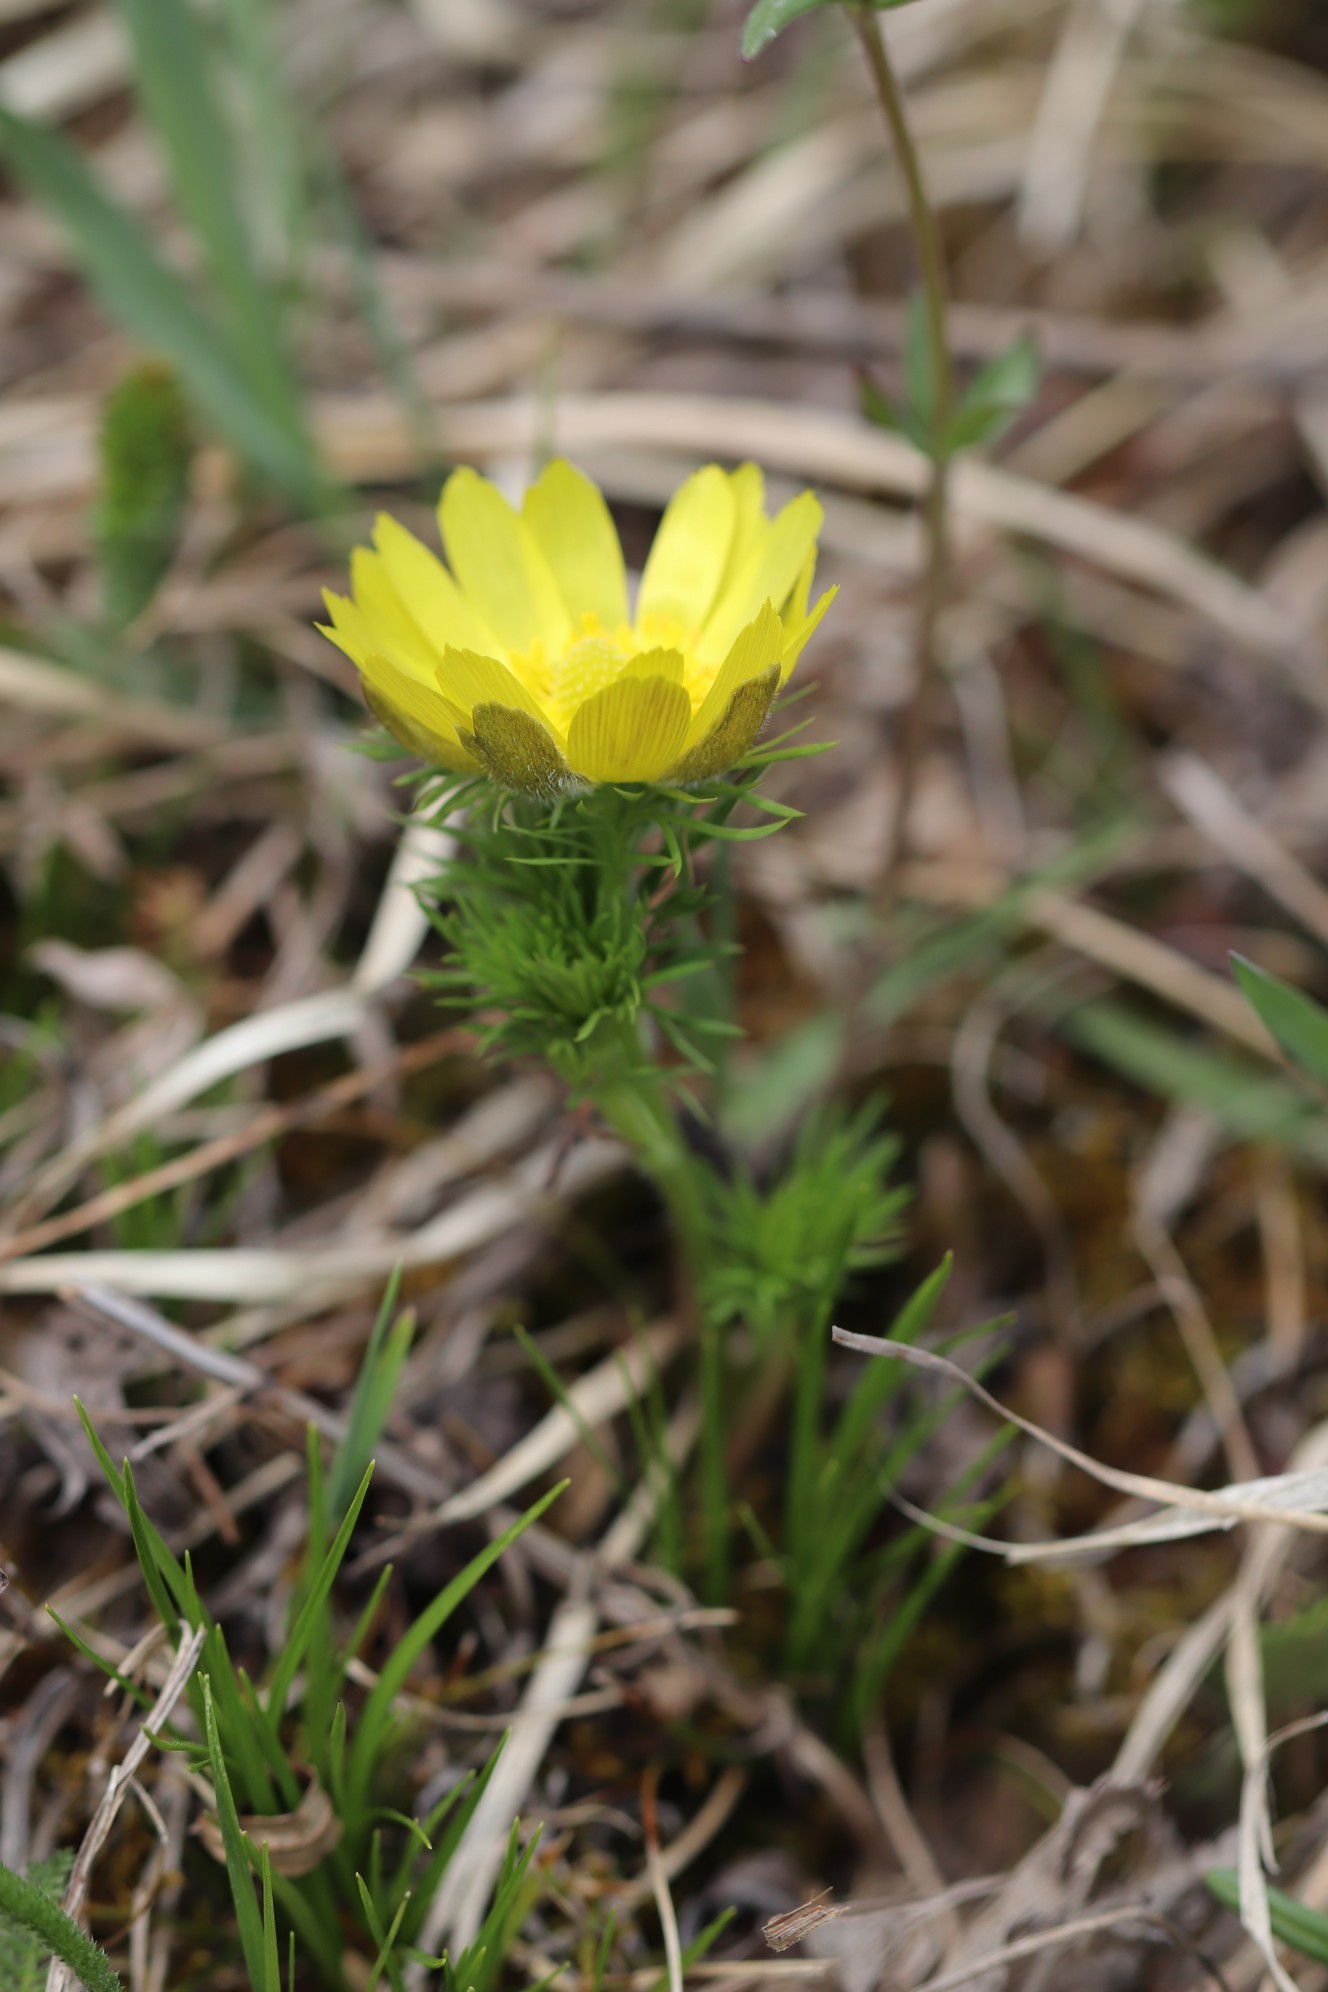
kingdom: Plantae
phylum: Tracheophyta
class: Magnoliopsida
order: Ranunculales
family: Ranunculaceae
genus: Adonis
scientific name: Adonis vernalis
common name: Yellow pheasants-eye
